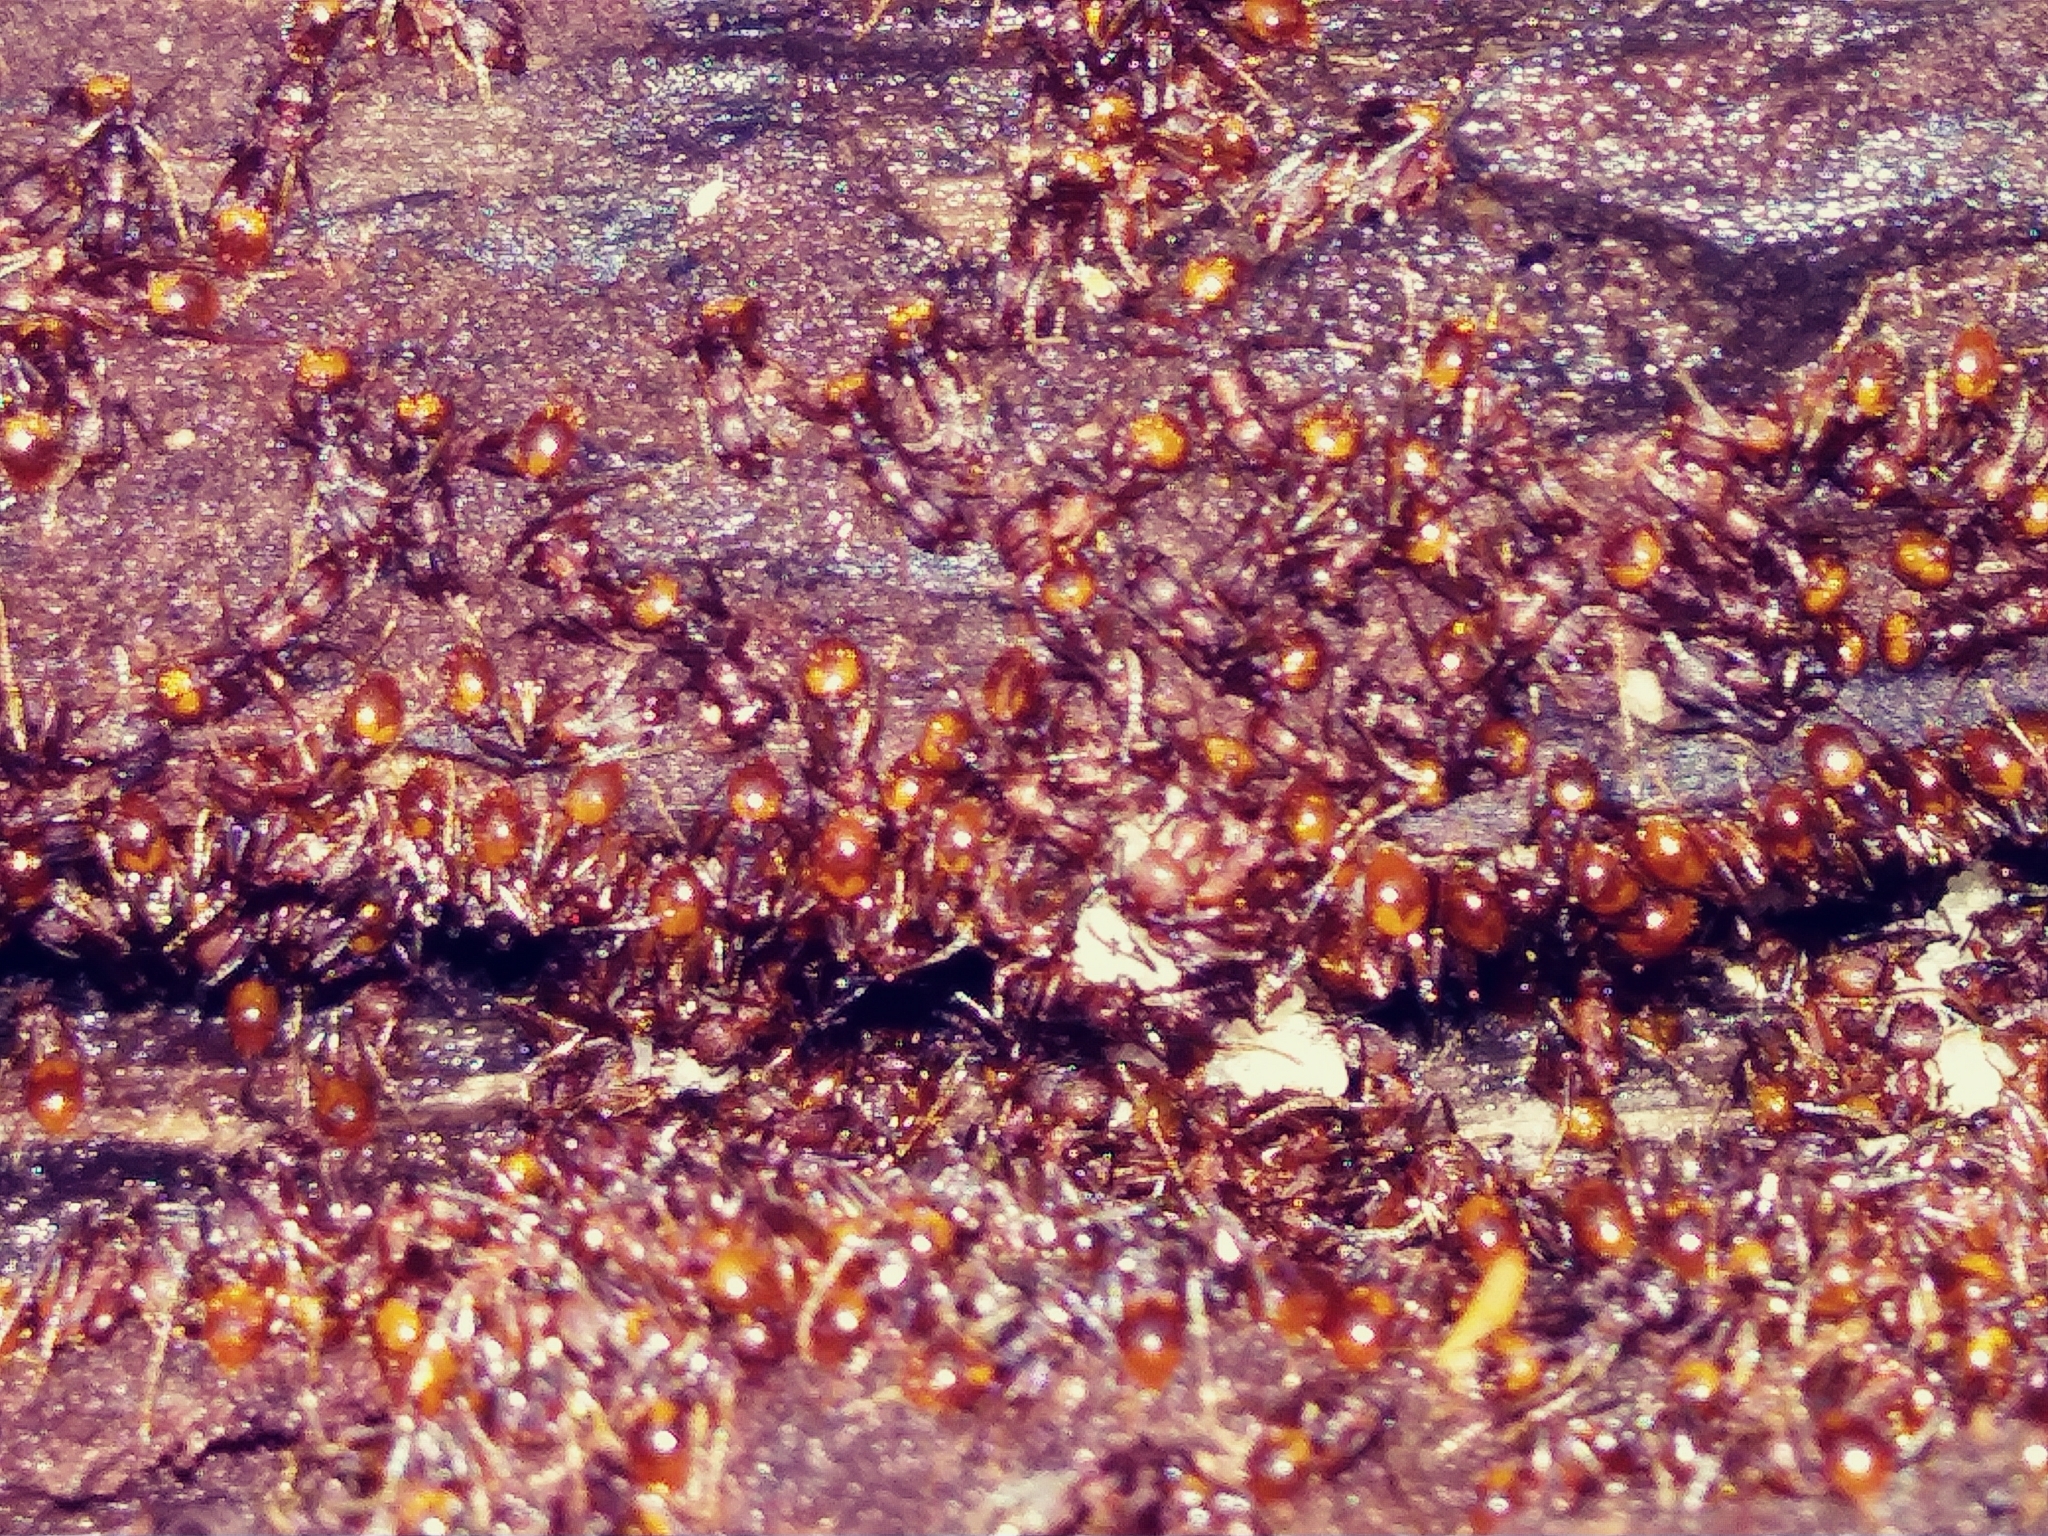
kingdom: Animalia
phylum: Arthropoda
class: Insecta
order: Hymenoptera
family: Formicidae
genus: Aphaenogaster
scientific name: Aphaenogaster fulva
